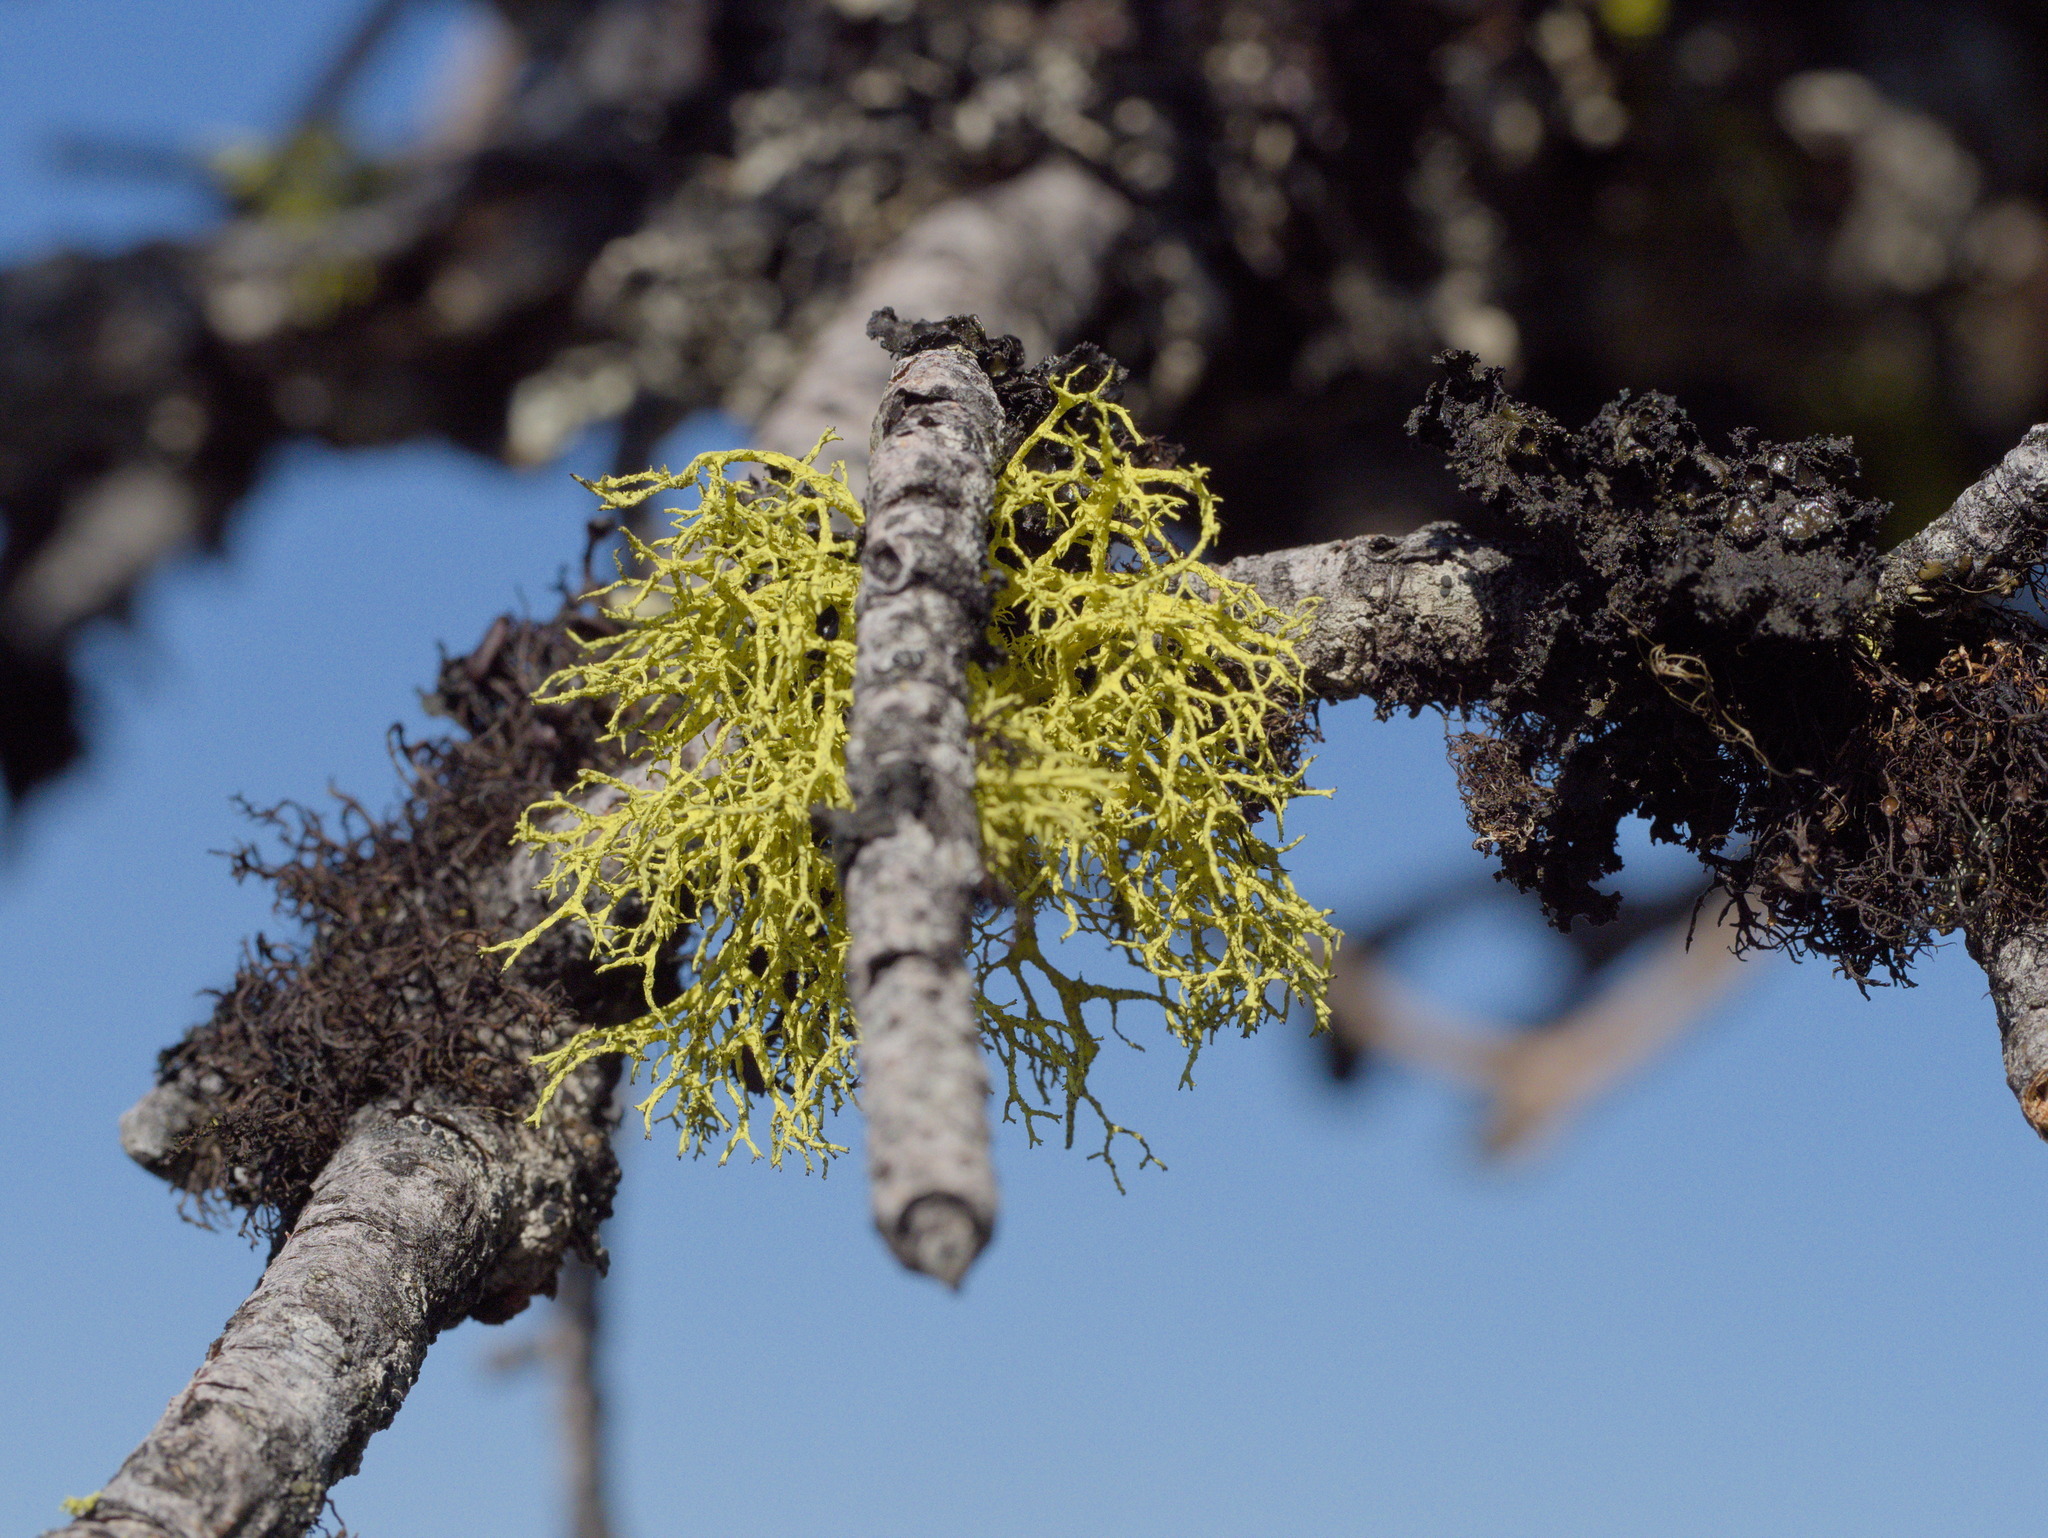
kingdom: Fungi
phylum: Ascomycota
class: Lecanoromycetes
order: Lecanorales
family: Parmeliaceae
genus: Letharia
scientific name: Letharia lupina
